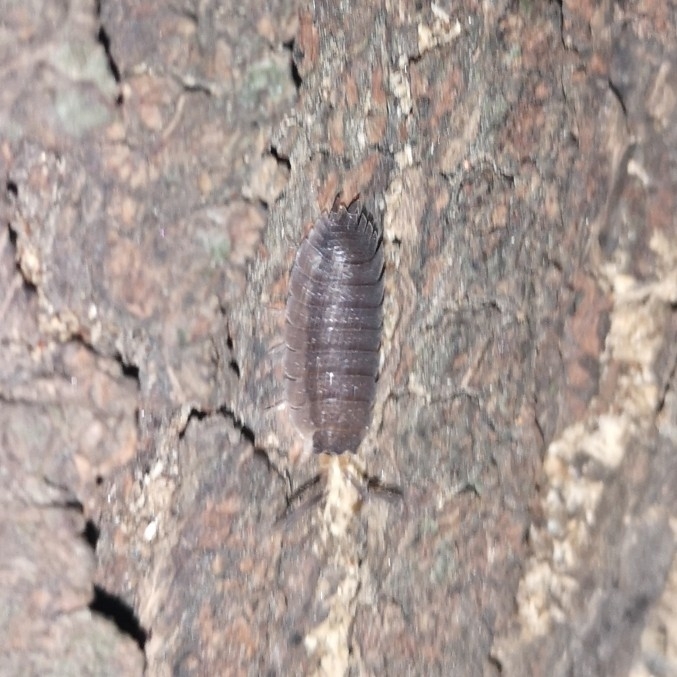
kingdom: Animalia
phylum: Arthropoda
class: Malacostraca
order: Isopoda
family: Porcellionidae
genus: Porcellio
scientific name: Porcellio scaber
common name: Common rough woodlouse
